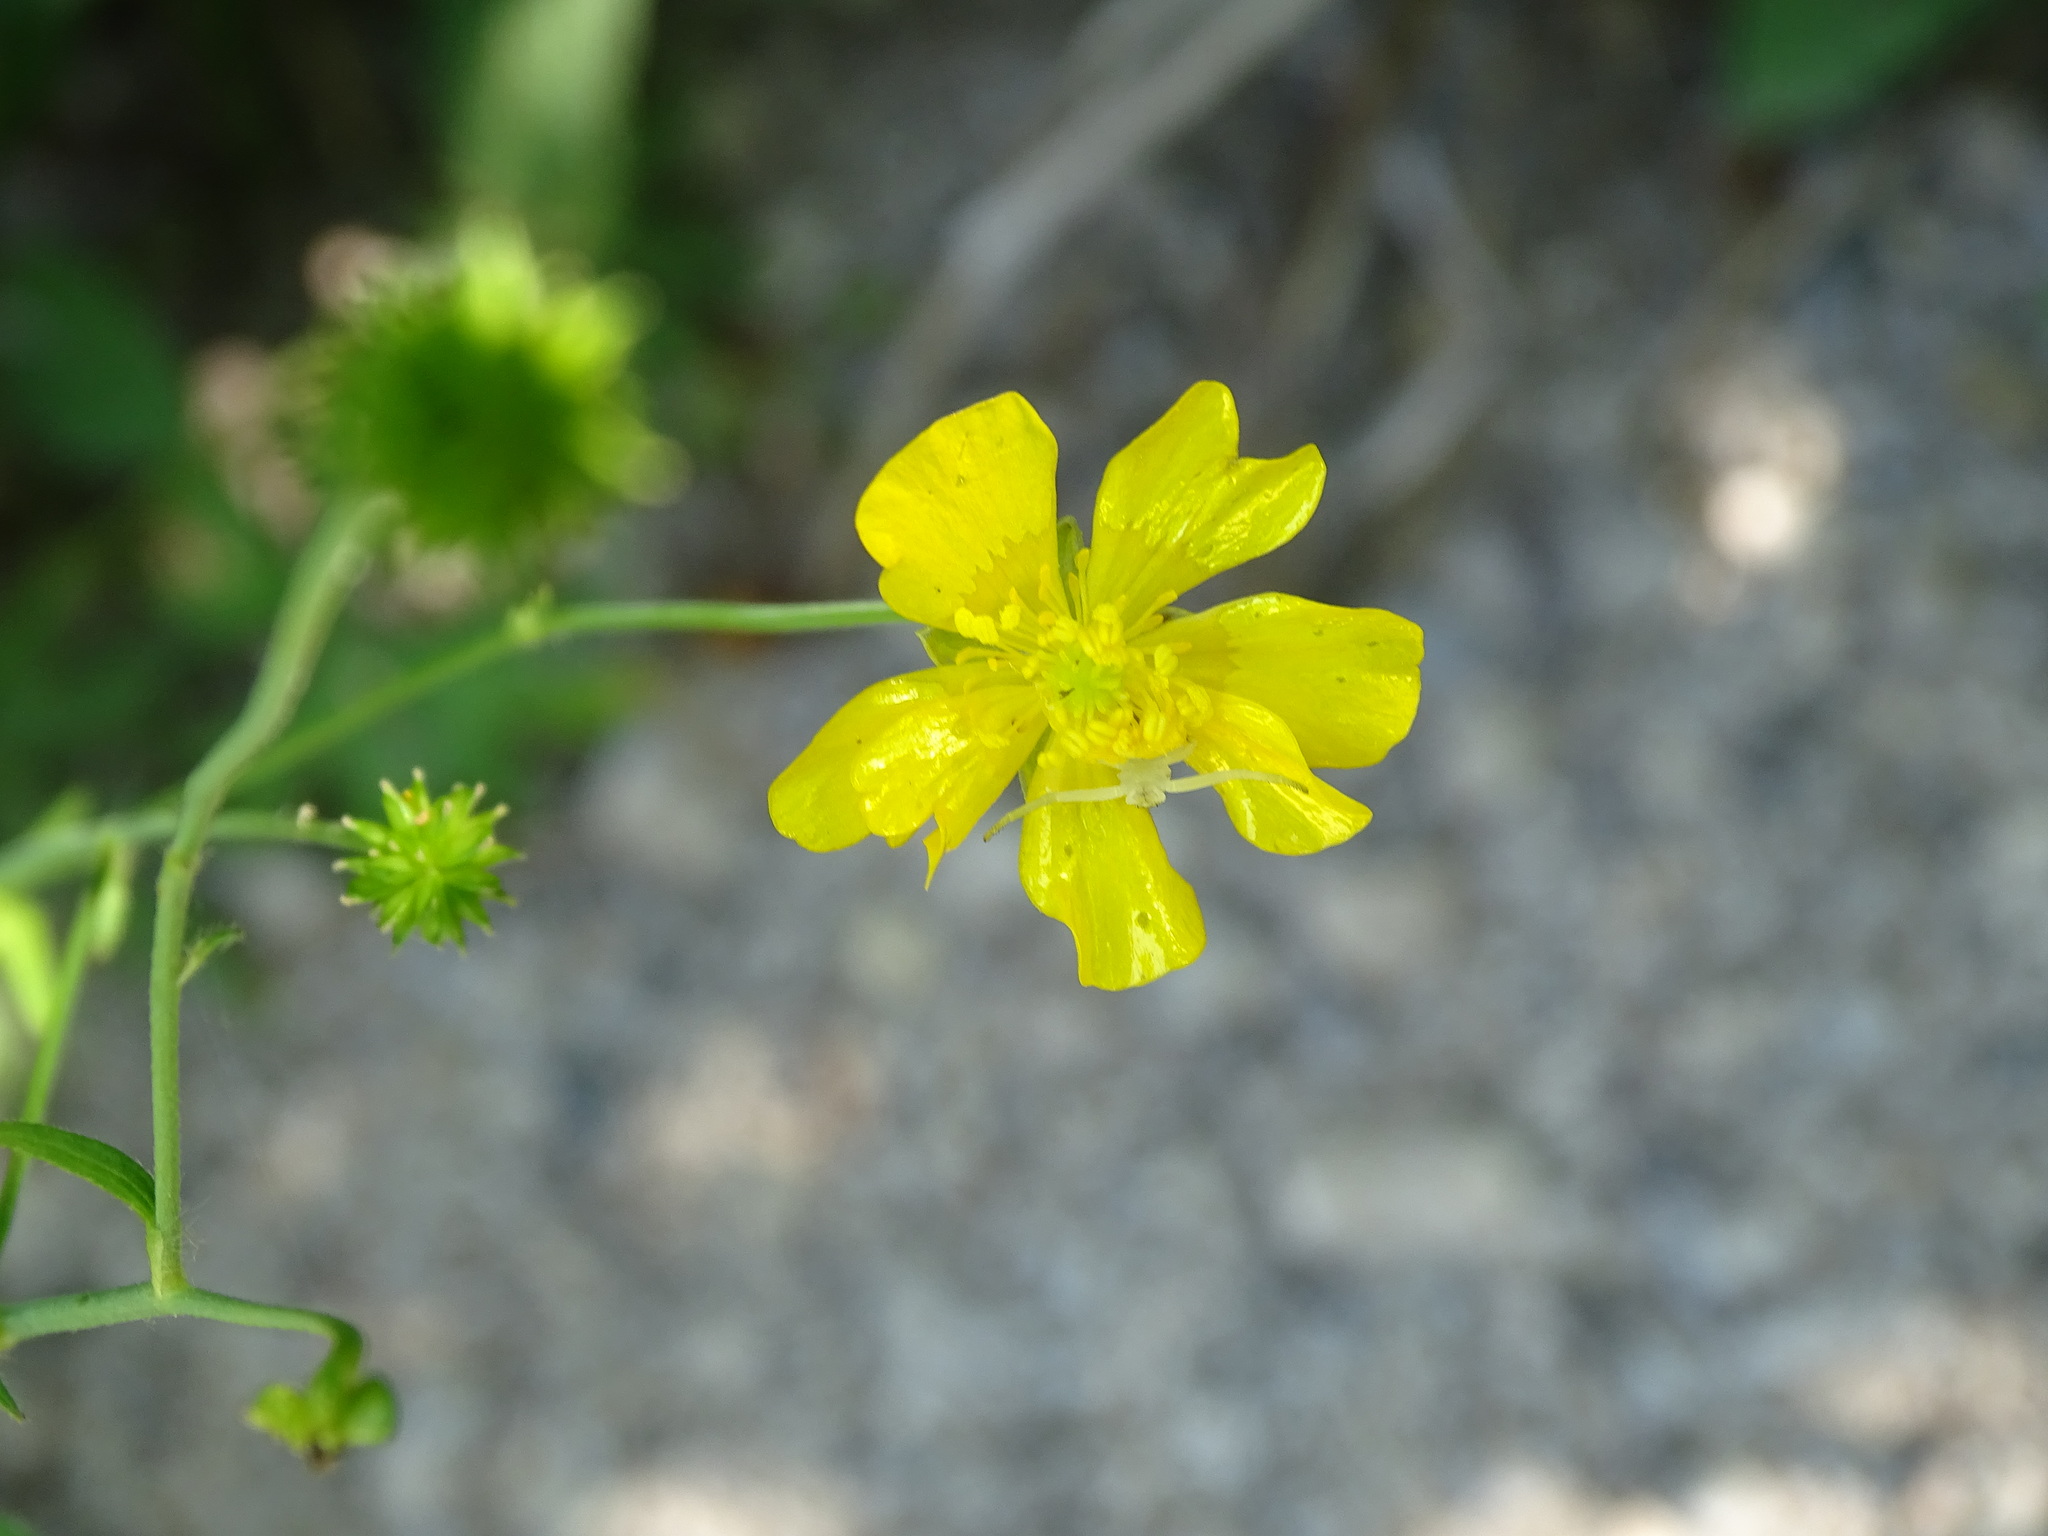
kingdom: Plantae
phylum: Tracheophyta
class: Magnoliopsida
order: Ranunculales
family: Ranunculaceae
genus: Ranunculus
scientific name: Ranunculus acris
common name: Meadow buttercup
